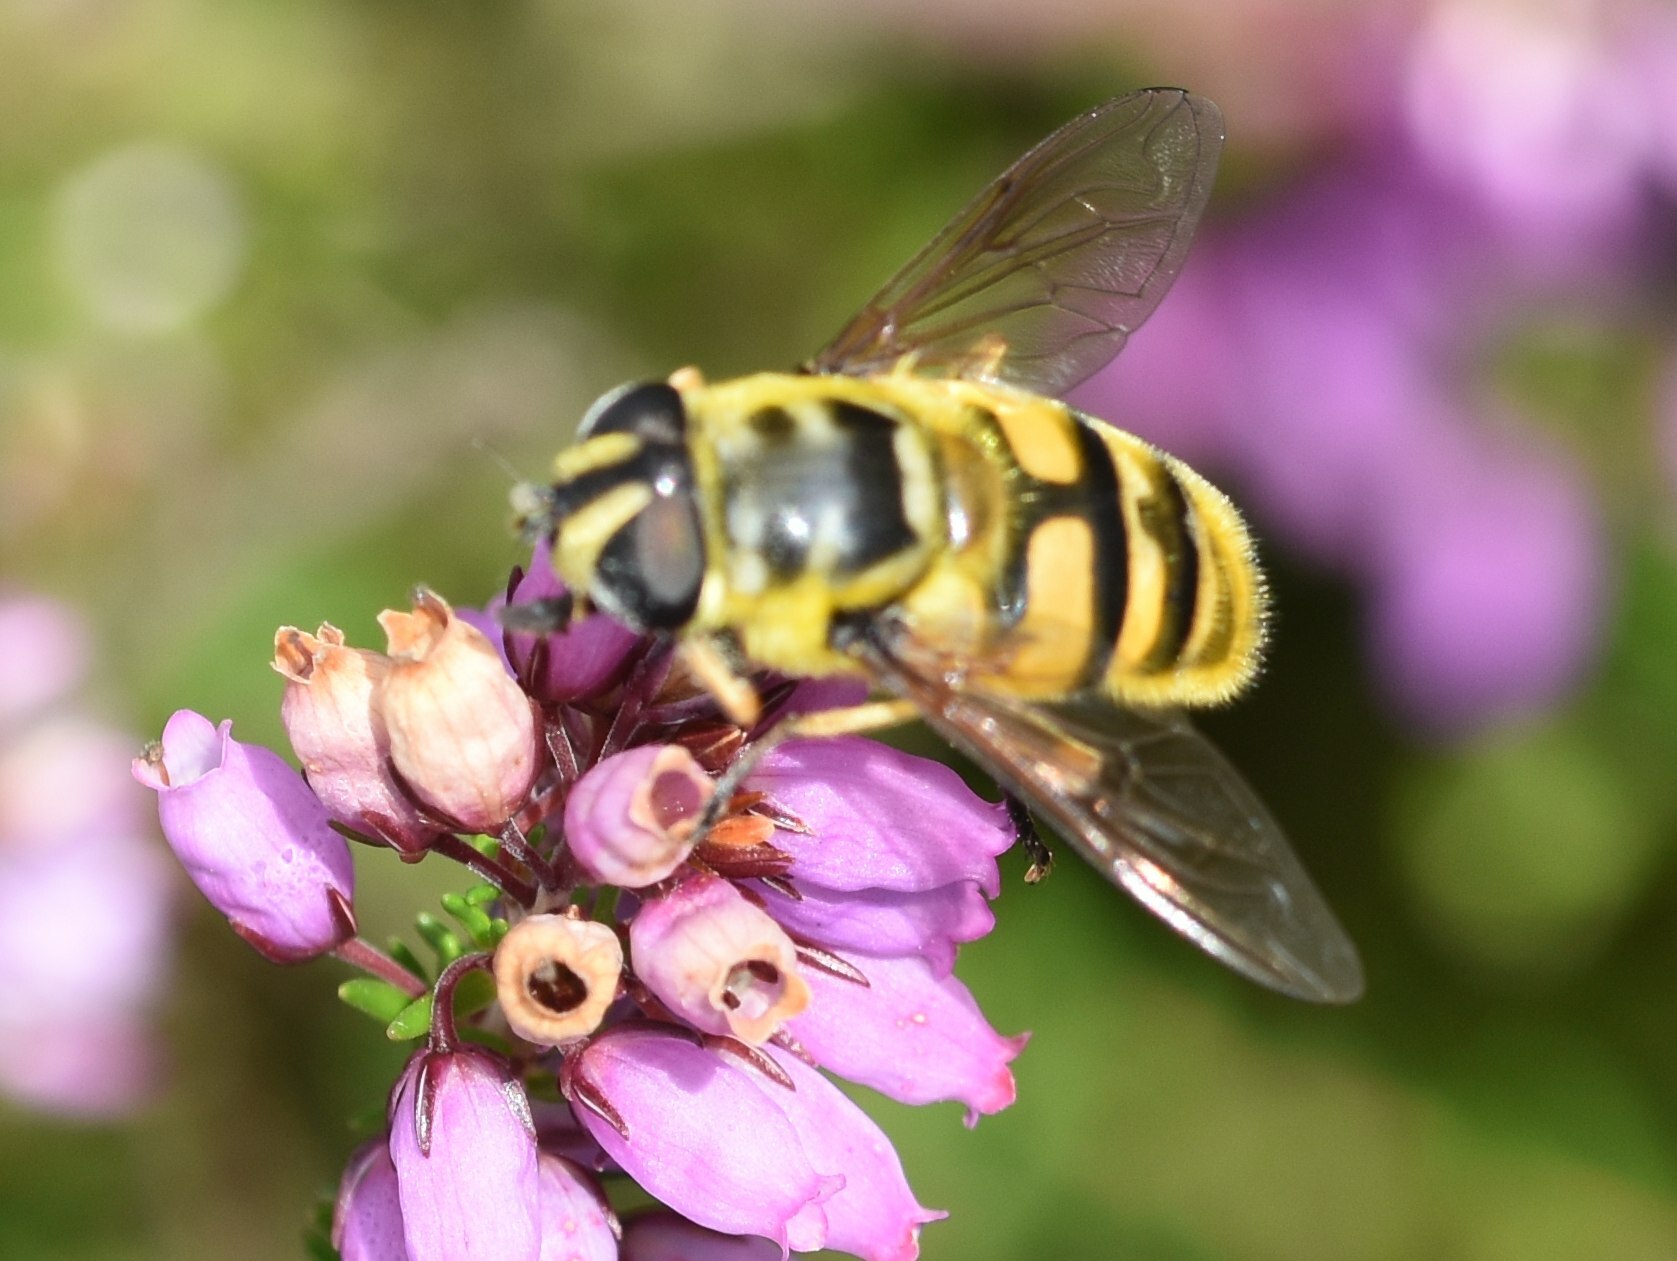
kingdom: Animalia
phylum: Arthropoda
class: Insecta
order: Diptera
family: Syrphidae
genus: Myathropa
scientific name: Myathropa florea
